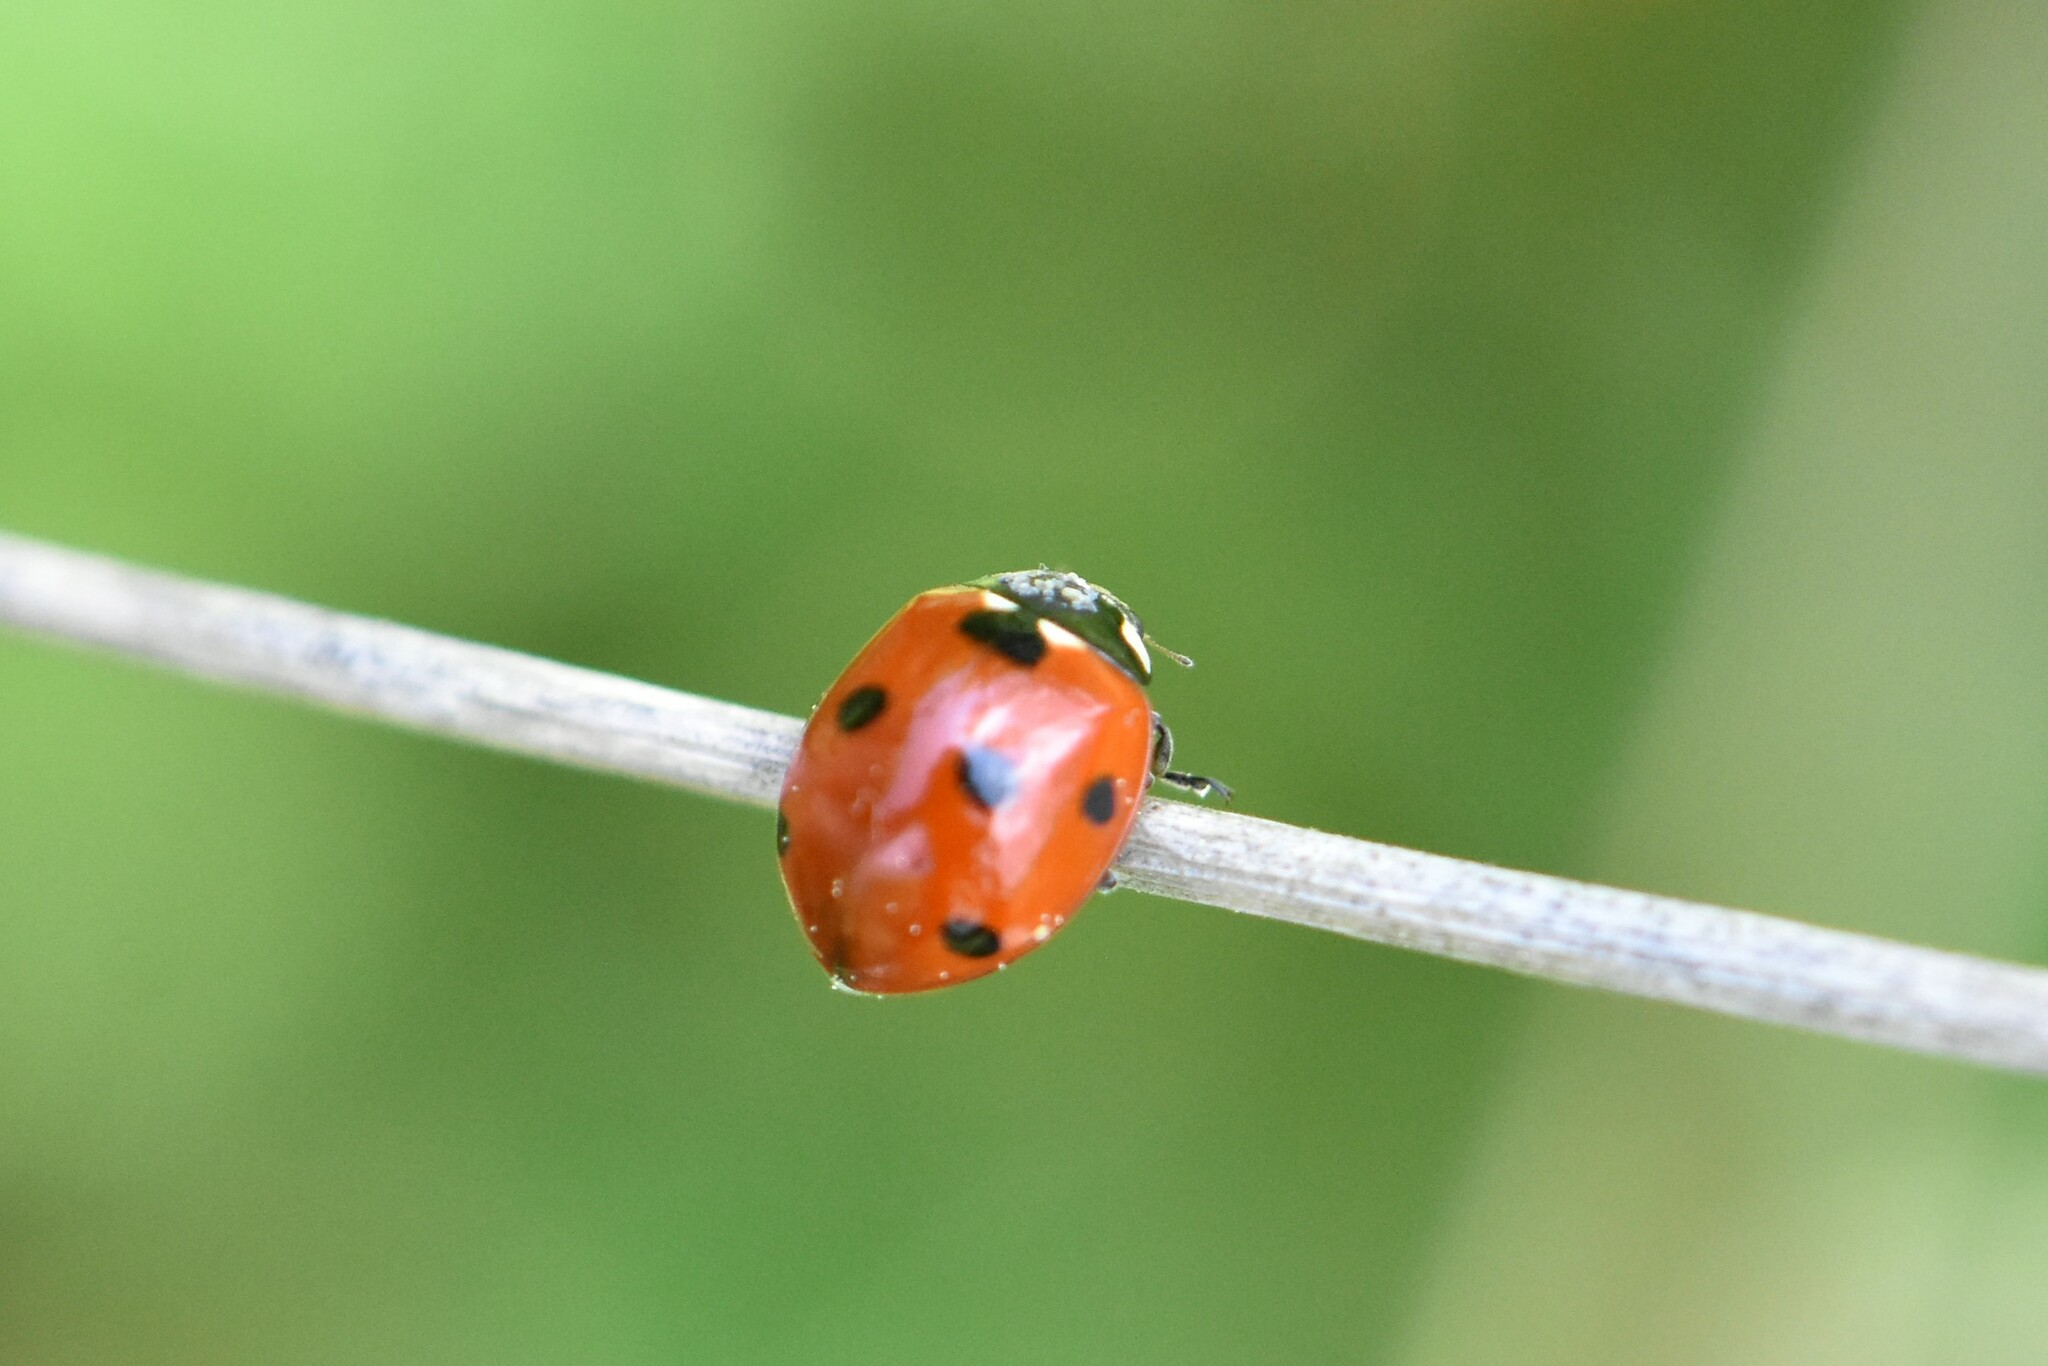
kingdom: Animalia
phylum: Arthropoda
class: Insecta
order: Coleoptera
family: Coccinellidae
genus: Coccinella
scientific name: Coccinella septempunctata
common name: Sevenspotted lady beetle
